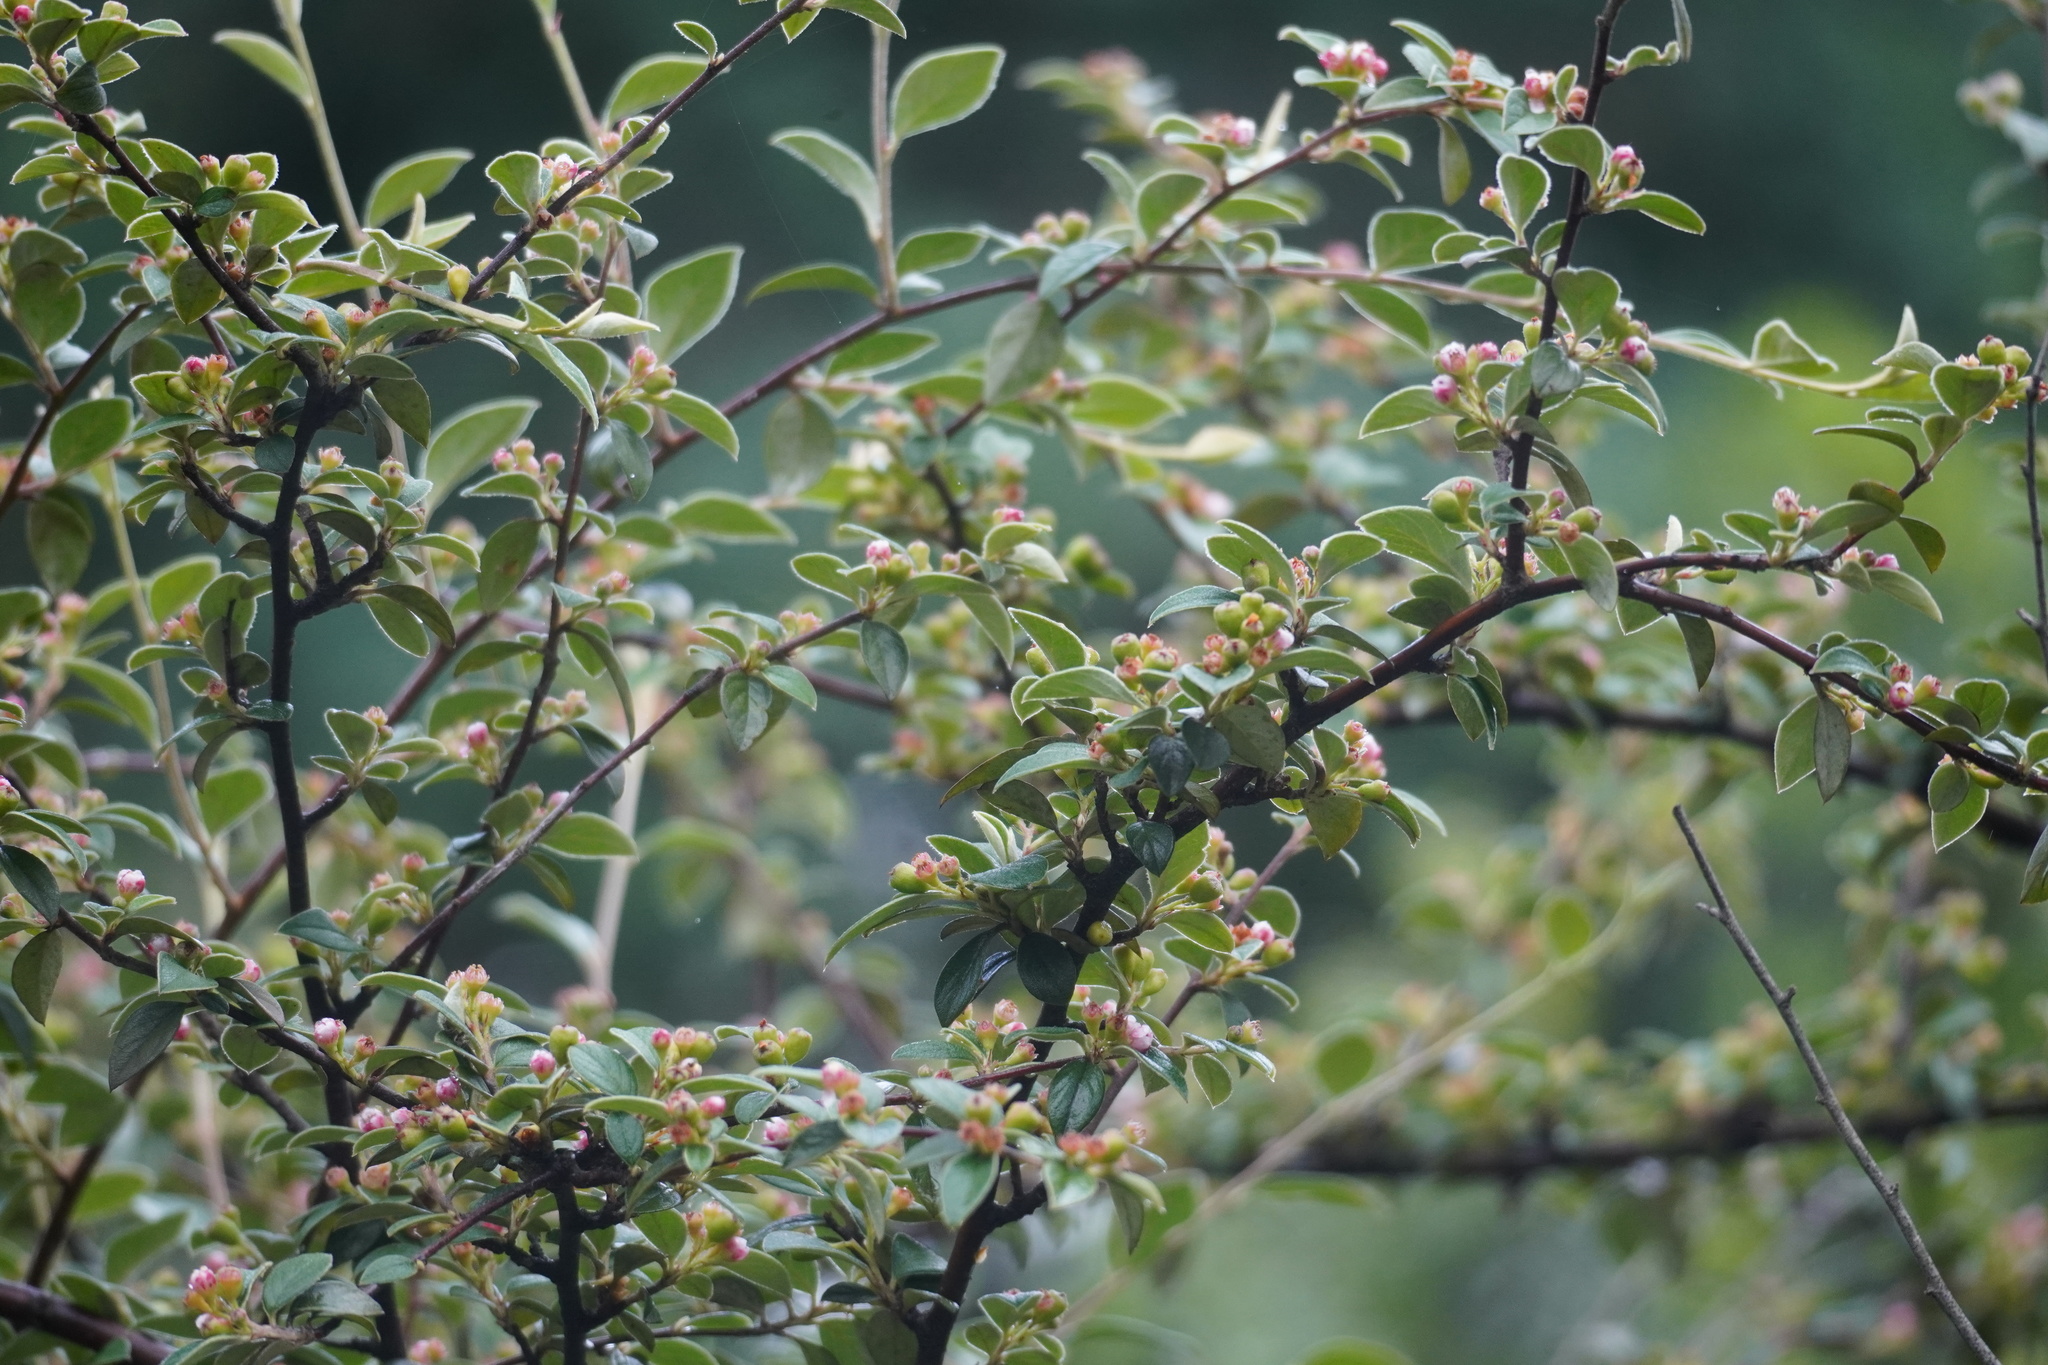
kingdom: Plantae
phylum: Tracheophyta
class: Magnoliopsida
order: Rosales
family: Rosaceae
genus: Cotoneaster
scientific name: Cotoneaster franchetii
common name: Franchet's cotoneaster
